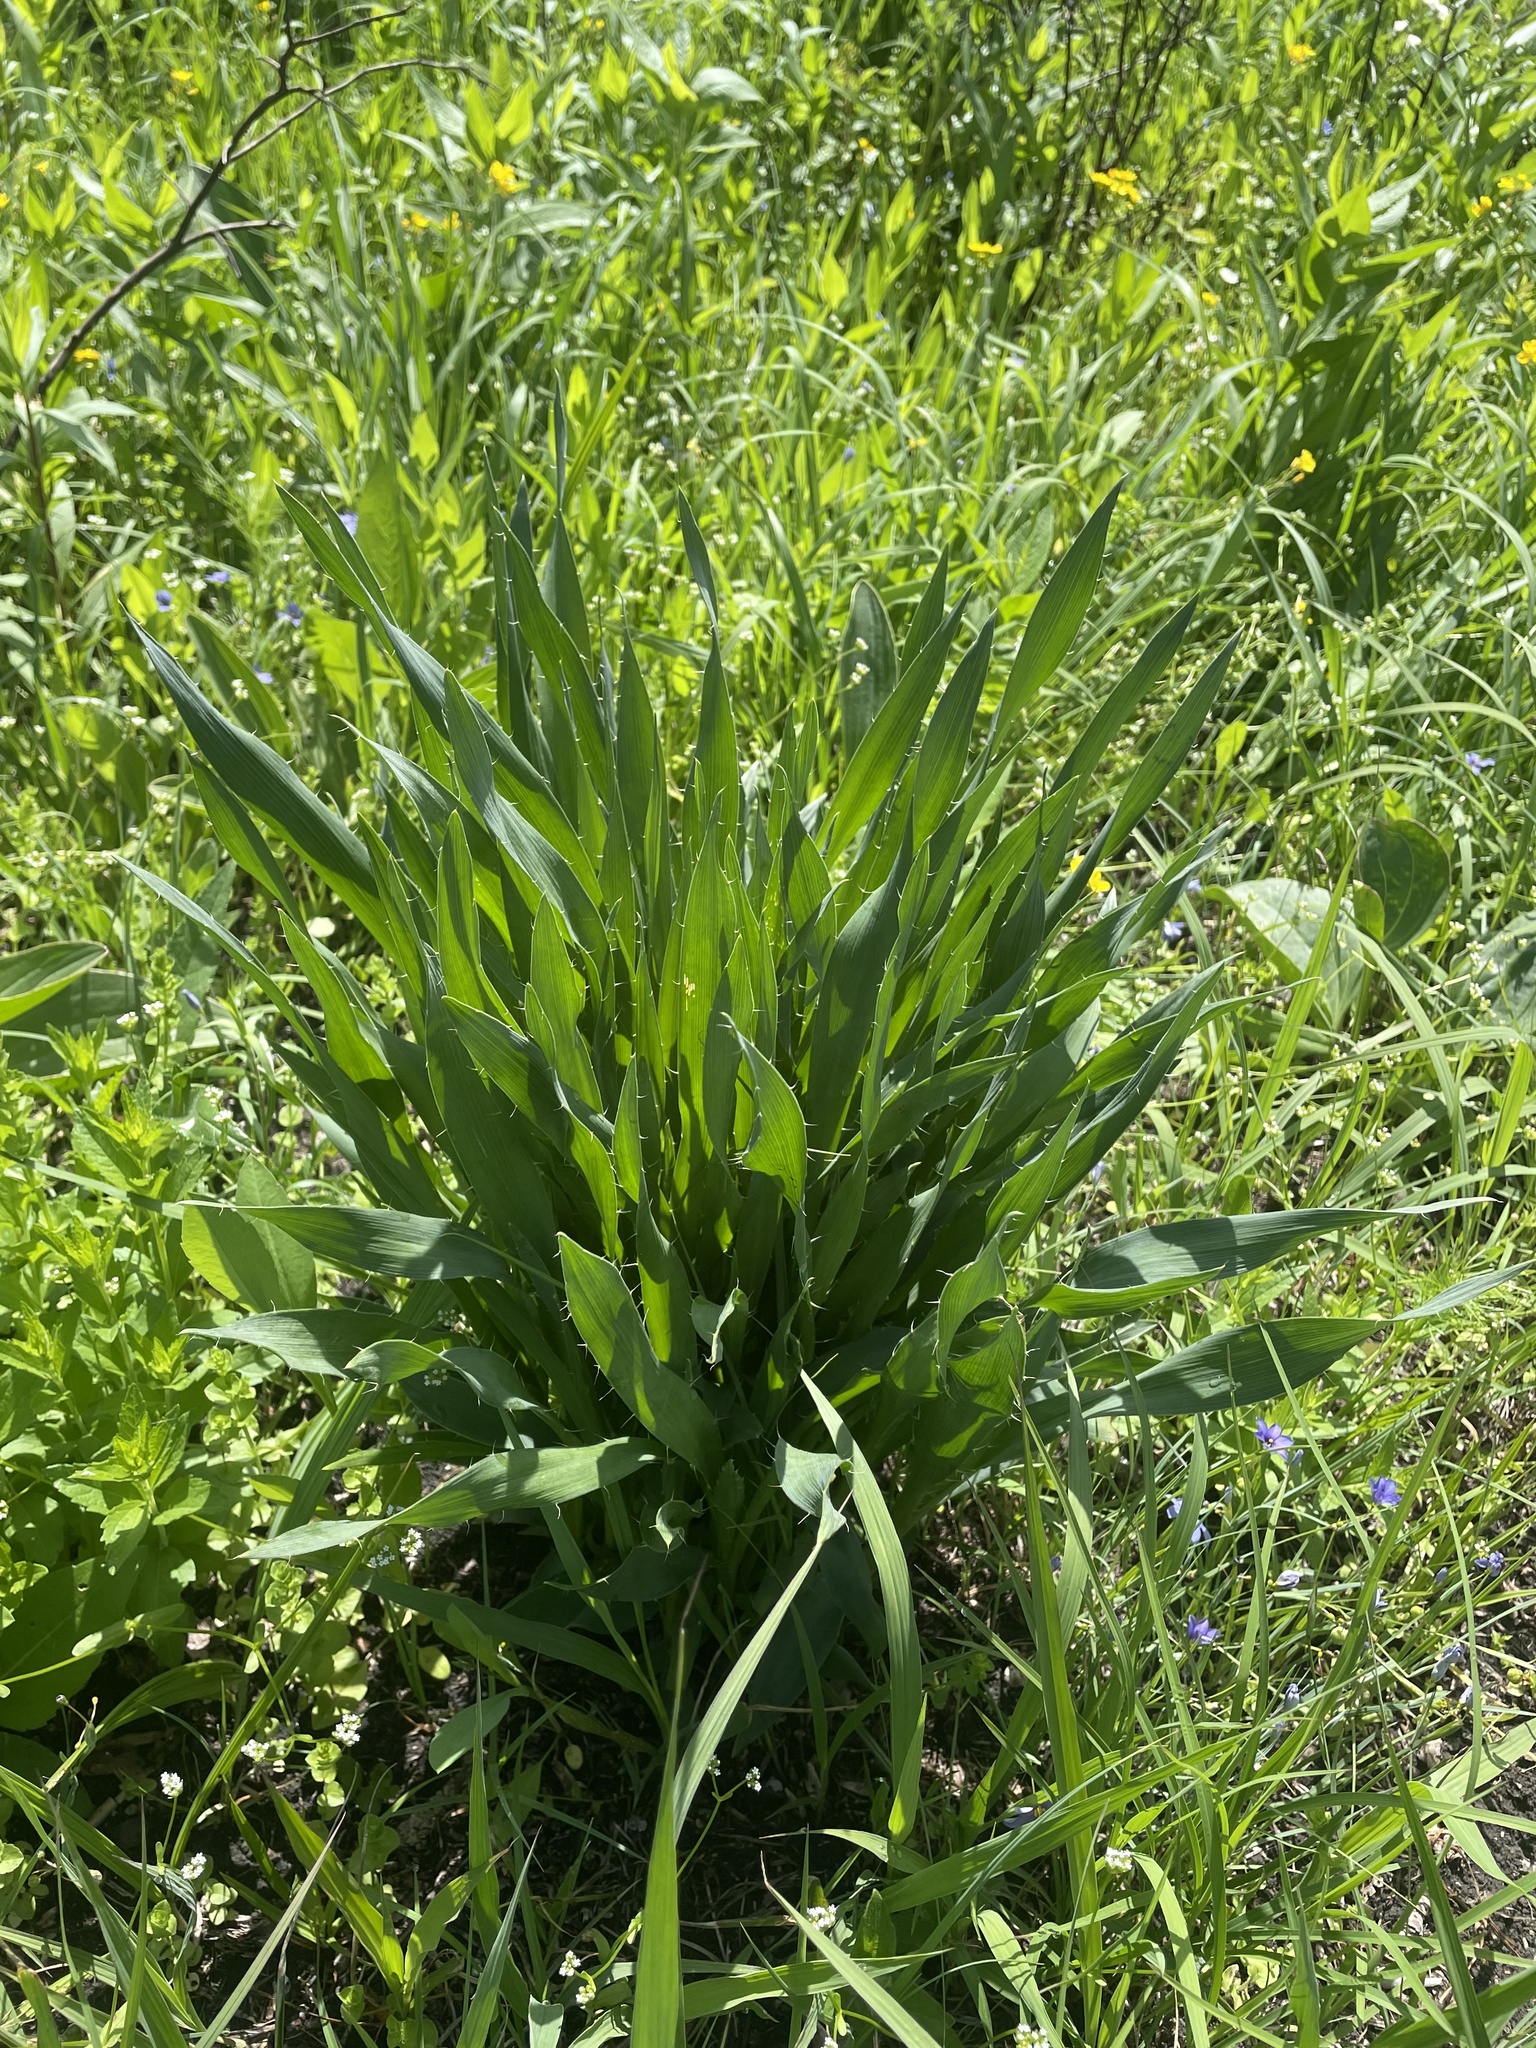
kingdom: Plantae
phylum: Tracheophyta
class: Magnoliopsida
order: Apiales
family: Apiaceae
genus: Eryngium
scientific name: Eryngium yuccifolium
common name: Button eryngo
